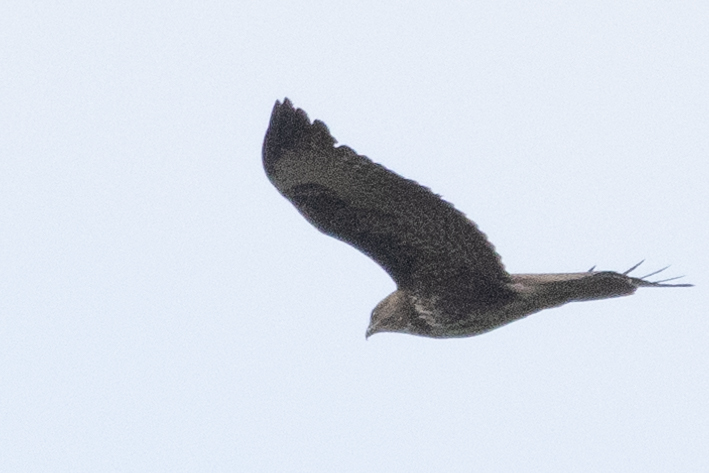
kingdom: Animalia
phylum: Chordata
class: Aves
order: Accipitriformes
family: Accipitridae
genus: Buteo
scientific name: Buteo buteo
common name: Common buzzard
